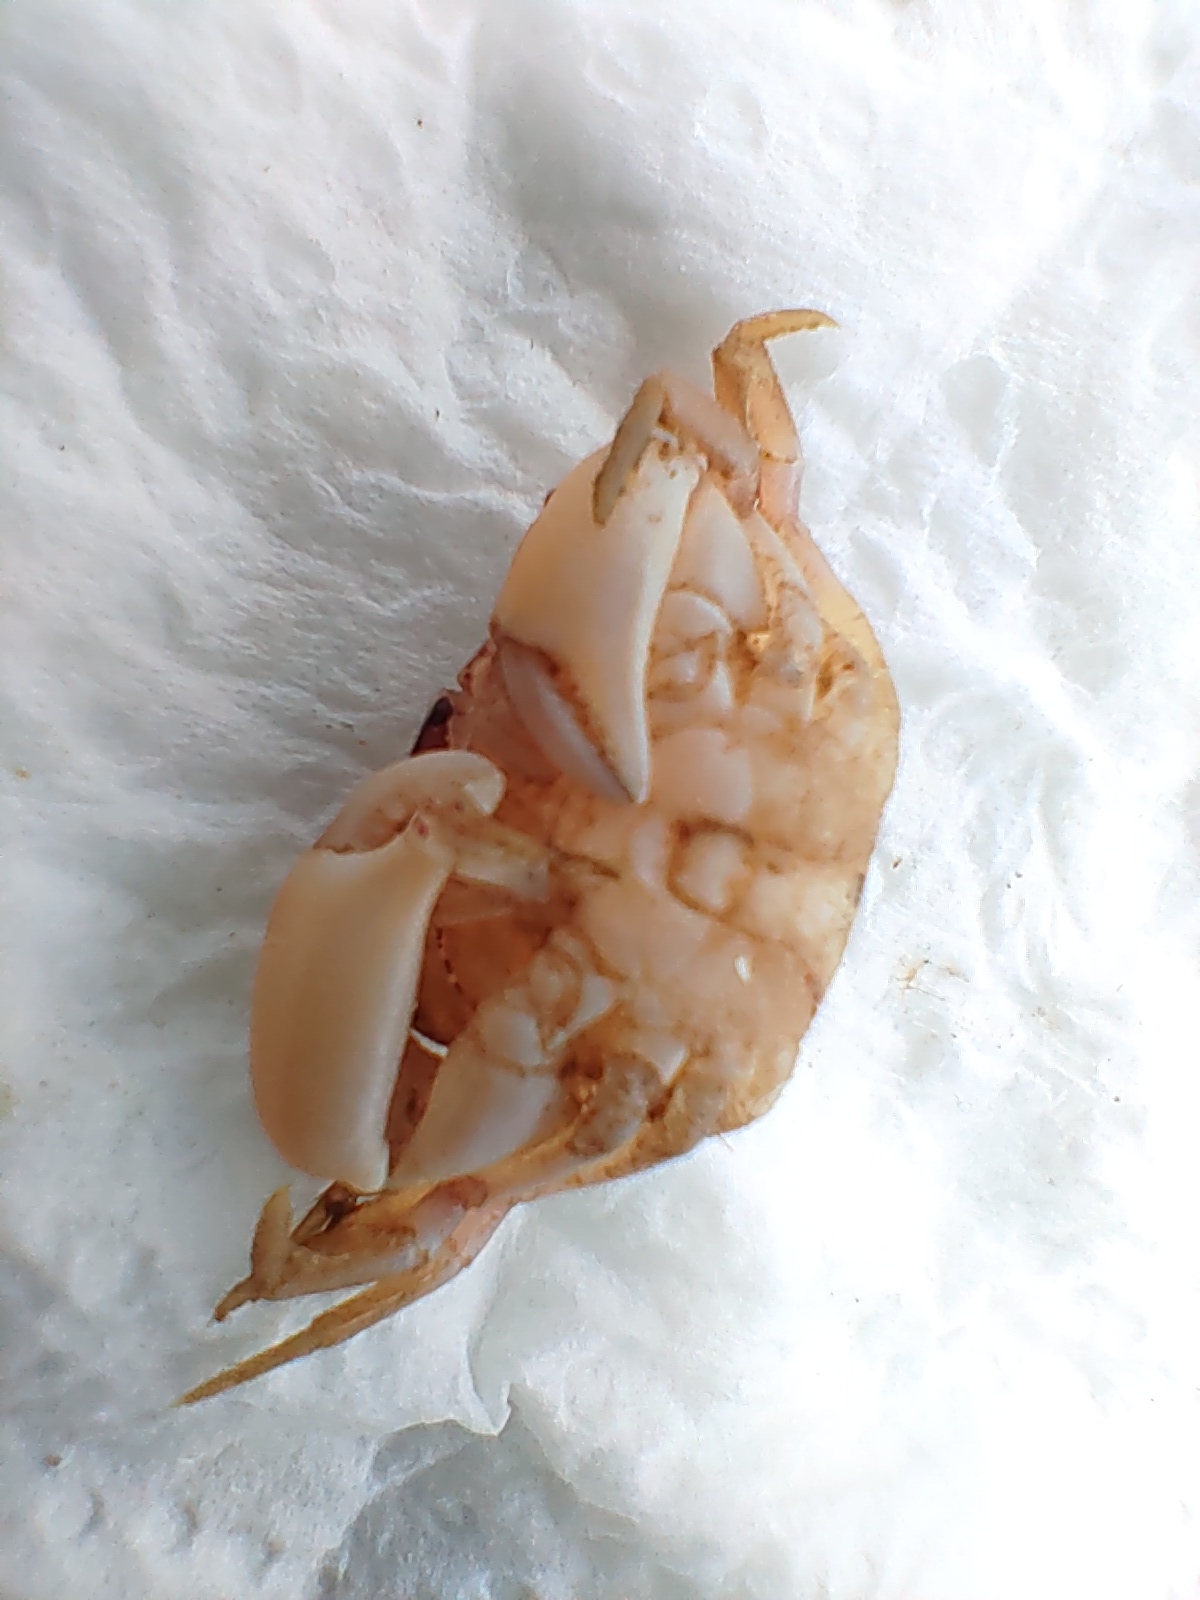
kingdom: Animalia
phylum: Arthropoda
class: Malacostraca
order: Decapoda
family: Panopeidae
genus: Rhithropanopeus
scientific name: Rhithropanopeus harrisii
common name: Dwarf crab
